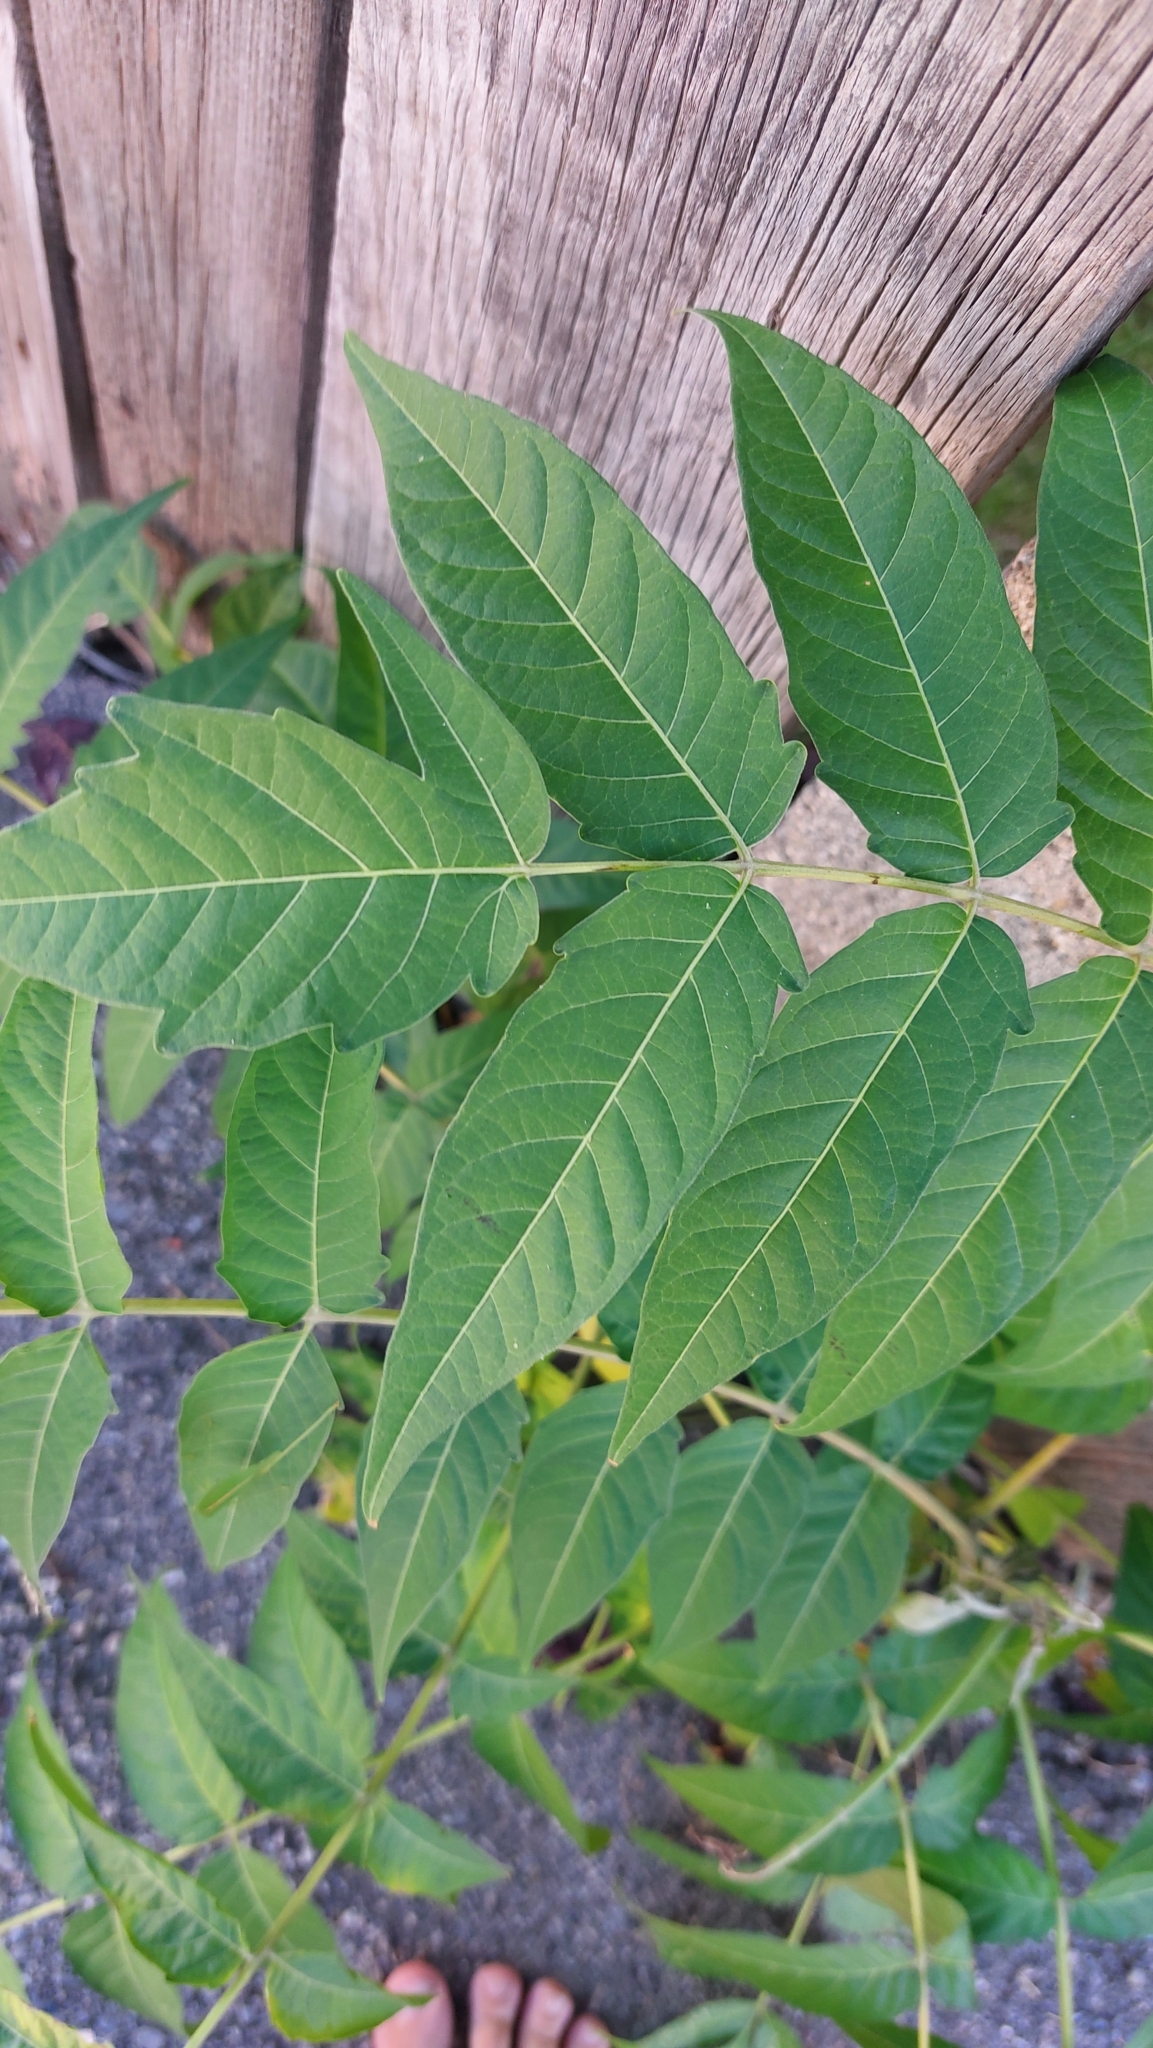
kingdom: Plantae
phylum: Tracheophyta
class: Magnoliopsida
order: Sapindales
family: Simaroubaceae
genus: Ailanthus
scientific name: Ailanthus altissima
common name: Tree-of-heaven
